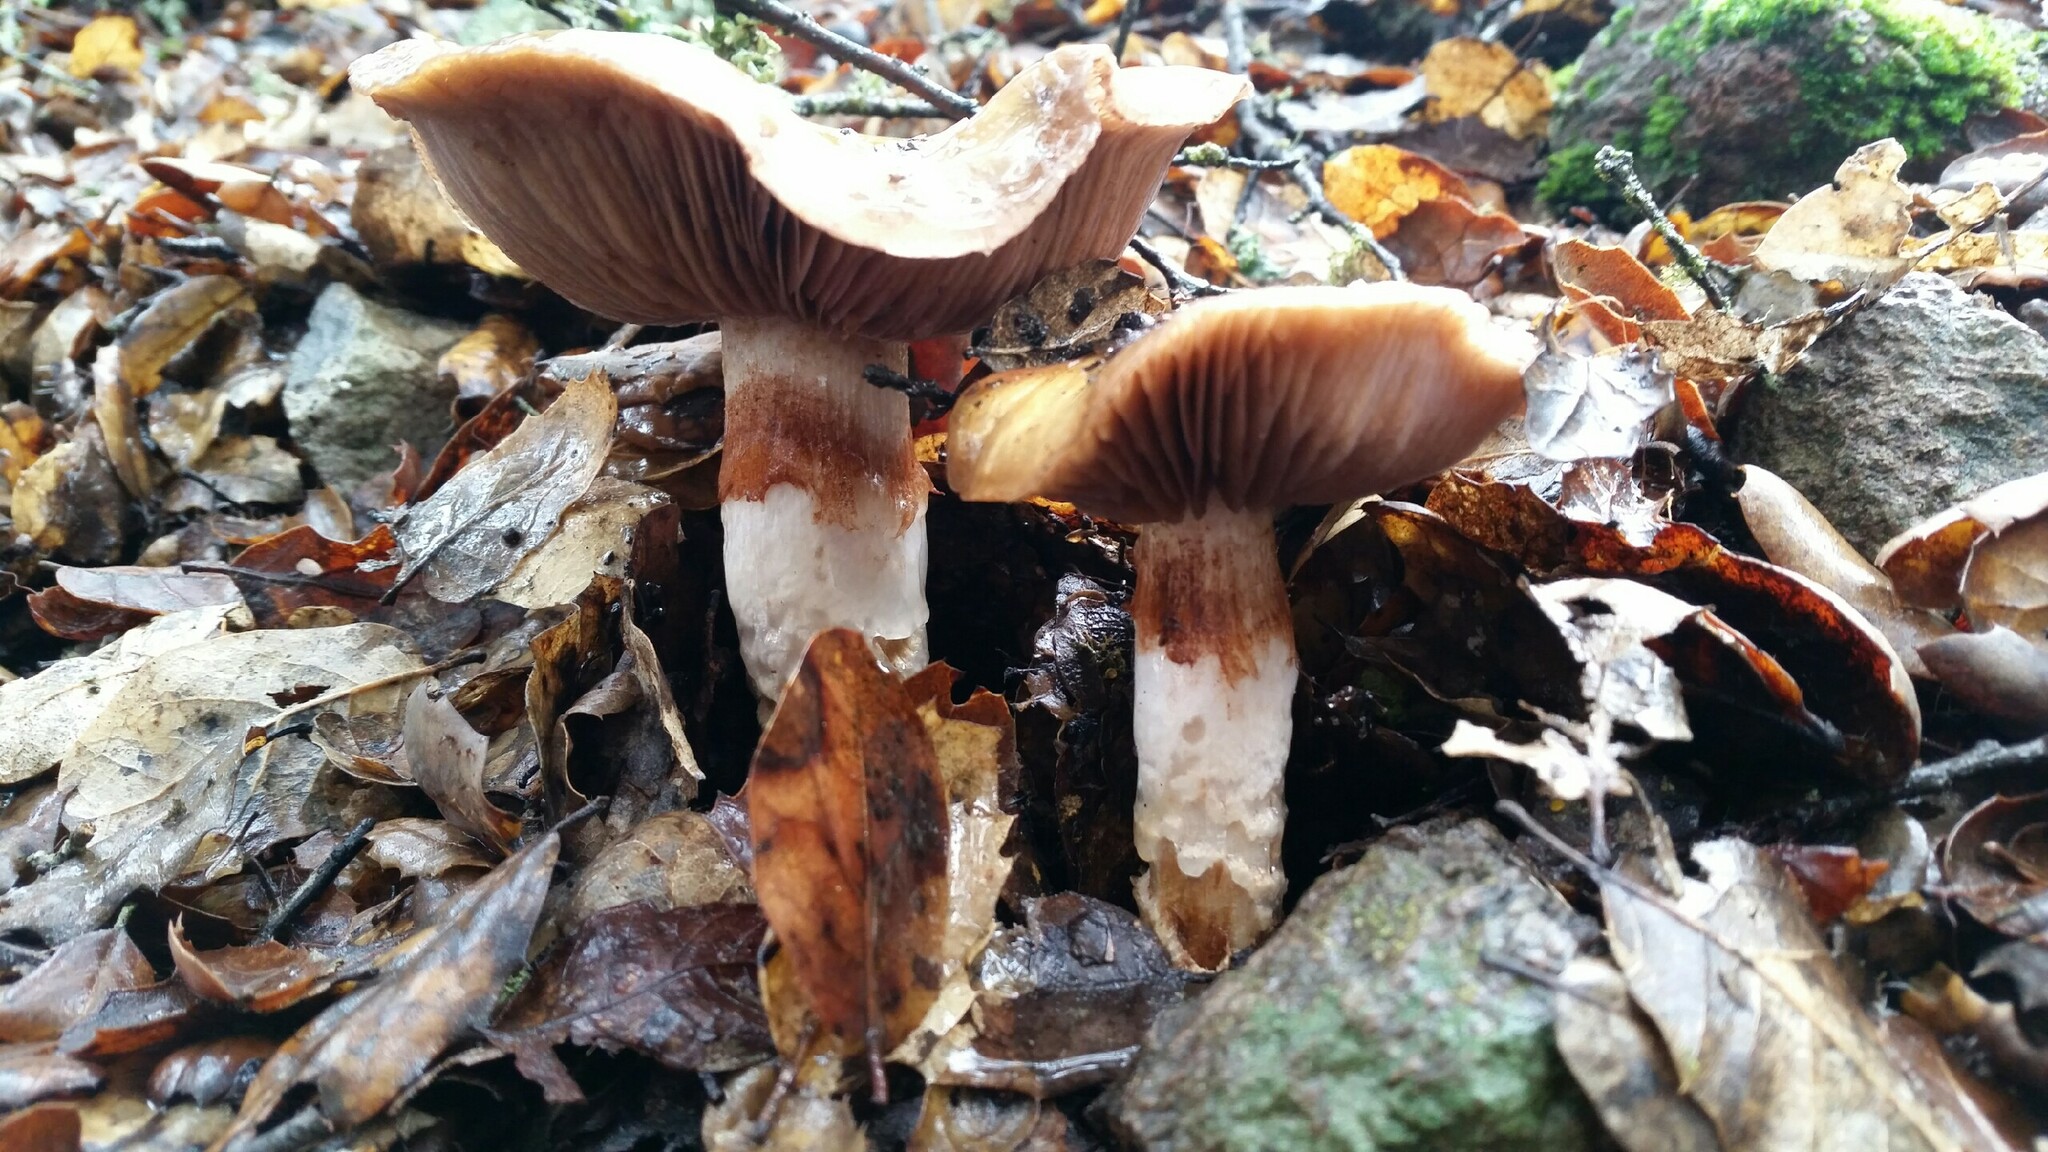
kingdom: Fungi
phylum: Basidiomycota
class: Agaricomycetes
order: Agaricales
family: Cortinariaceae
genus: Cortinarius
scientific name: Cortinarius glutinosoarmillatus
